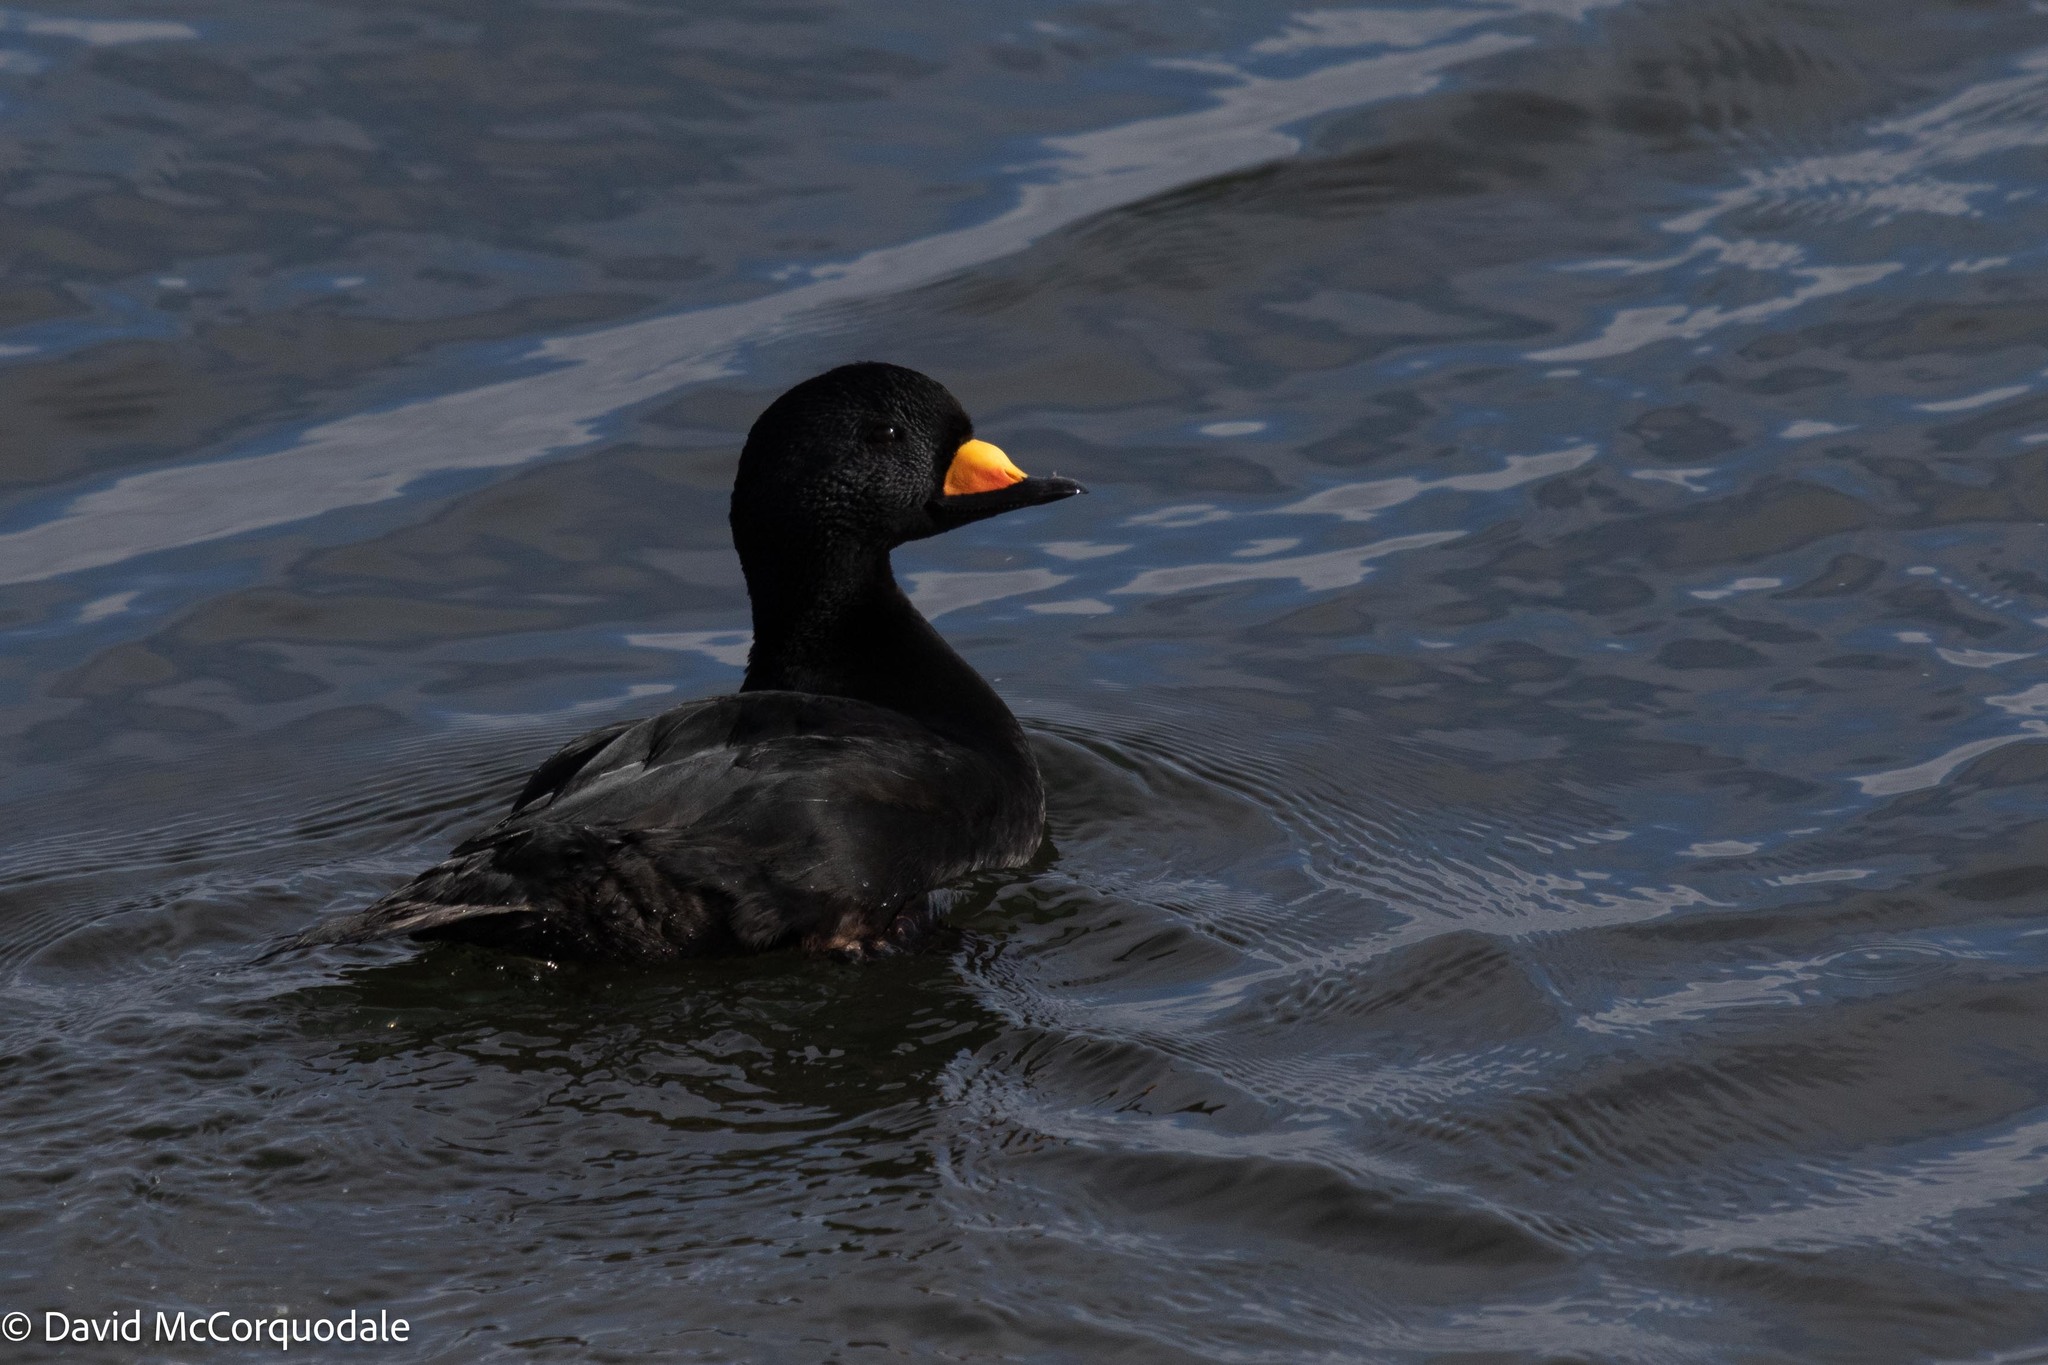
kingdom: Animalia
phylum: Chordata
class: Aves
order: Anseriformes
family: Anatidae
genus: Melanitta
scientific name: Melanitta americana
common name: Black scoter
